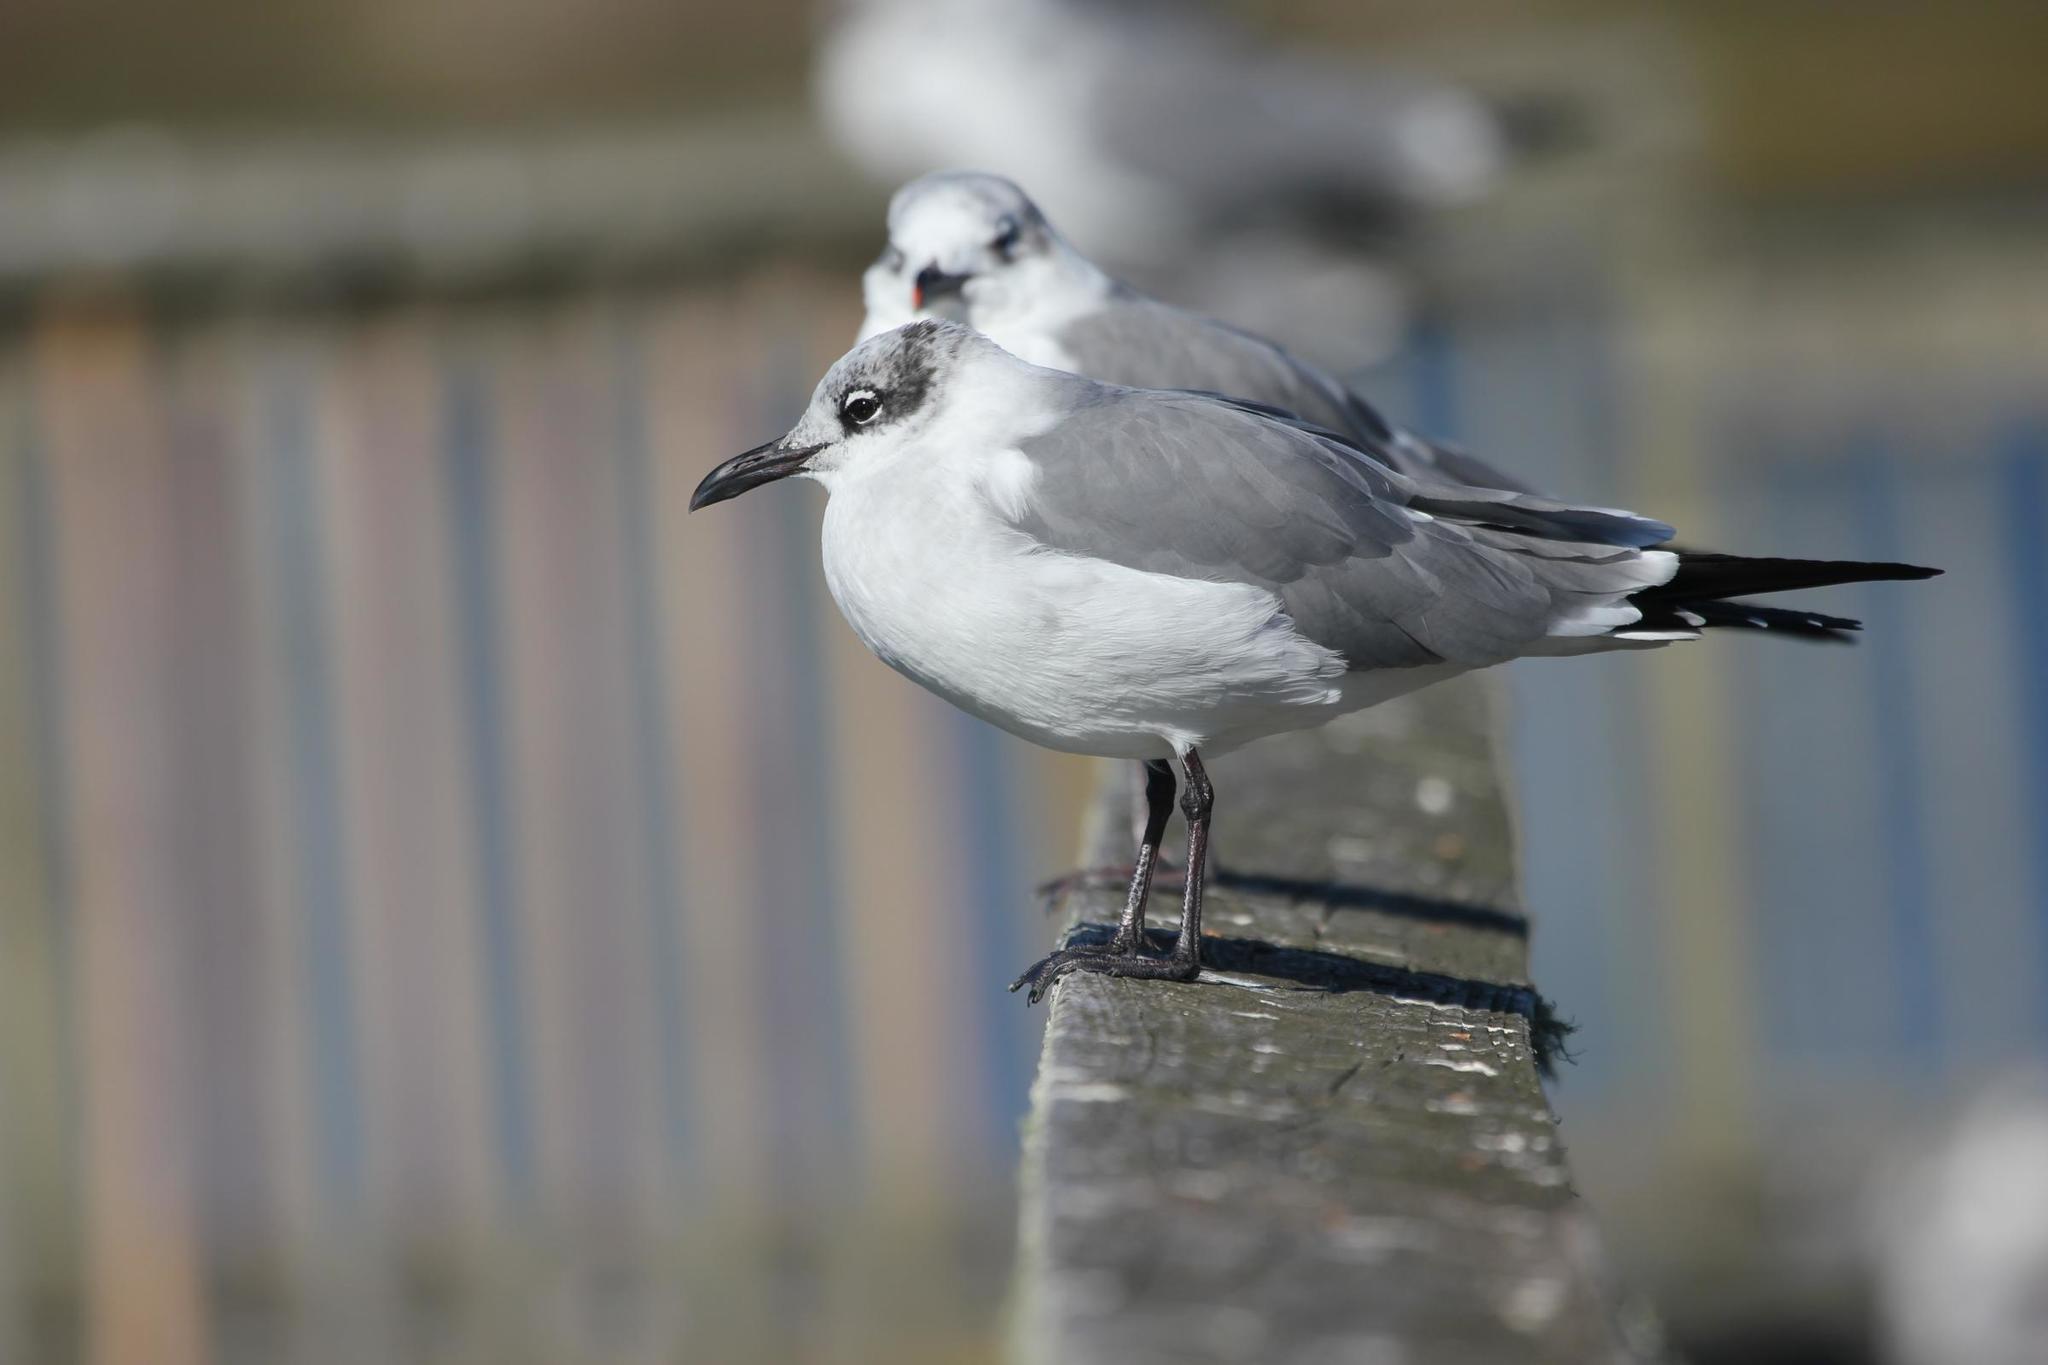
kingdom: Animalia
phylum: Chordata
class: Aves
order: Charadriiformes
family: Laridae
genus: Leucophaeus
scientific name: Leucophaeus atricilla
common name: Laughing gull
